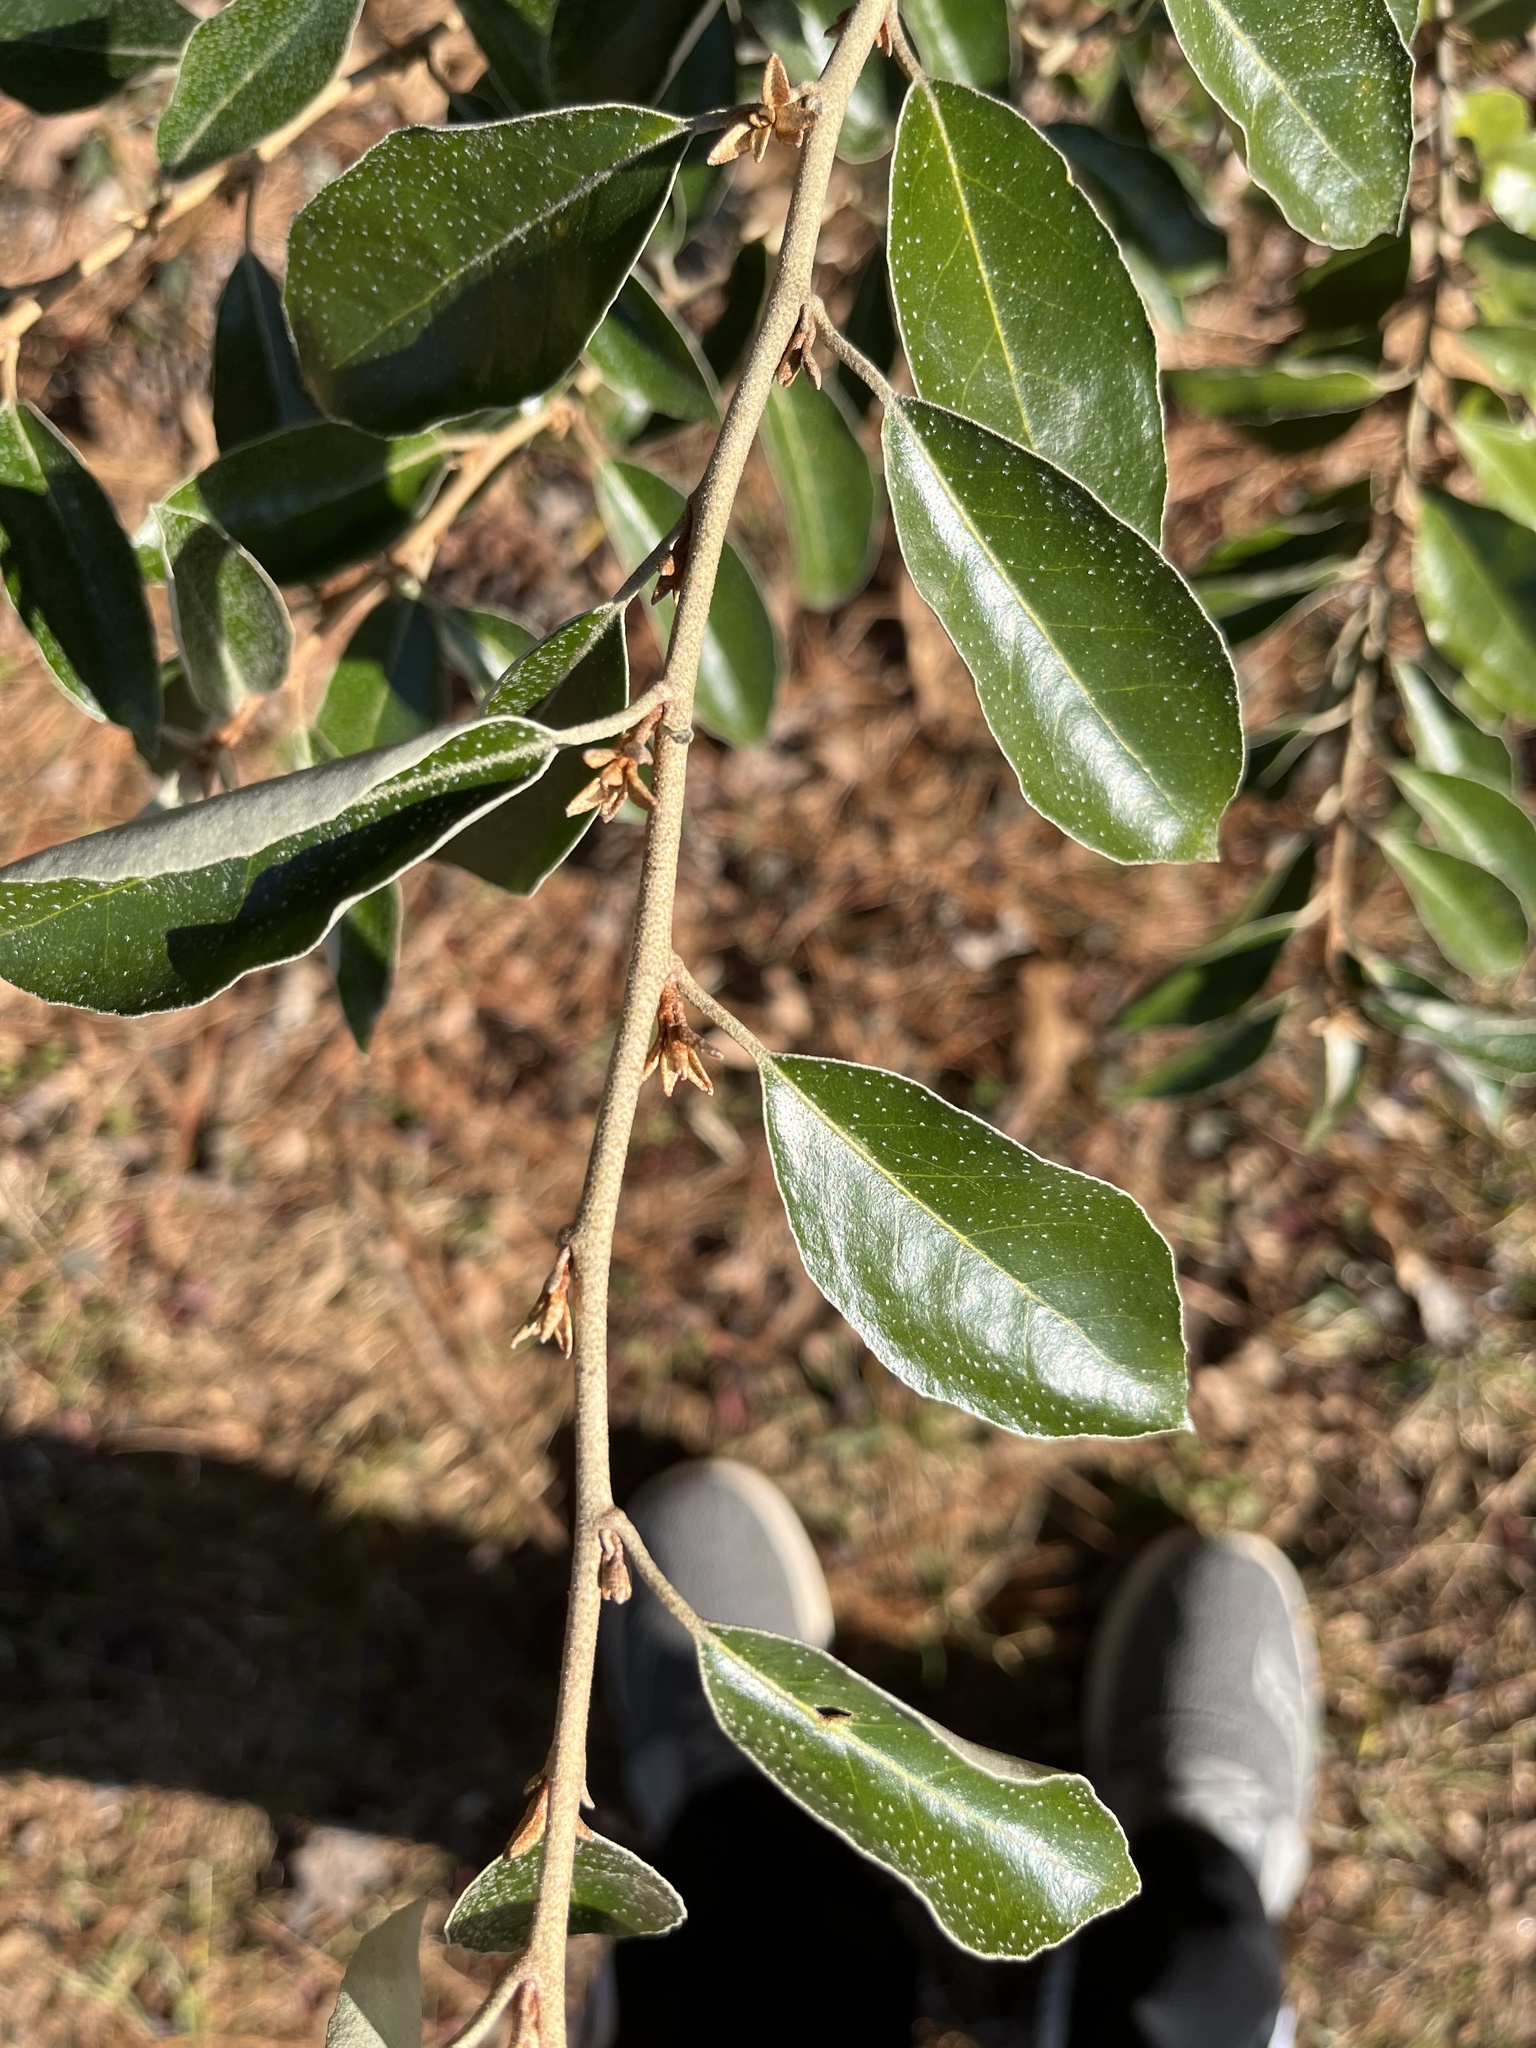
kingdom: Plantae
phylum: Tracheophyta
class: Magnoliopsida
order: Rosales
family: Elaeagnaceae
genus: Elaeagnus
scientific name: Elaeagnus pungens
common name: Spiny oleaster
